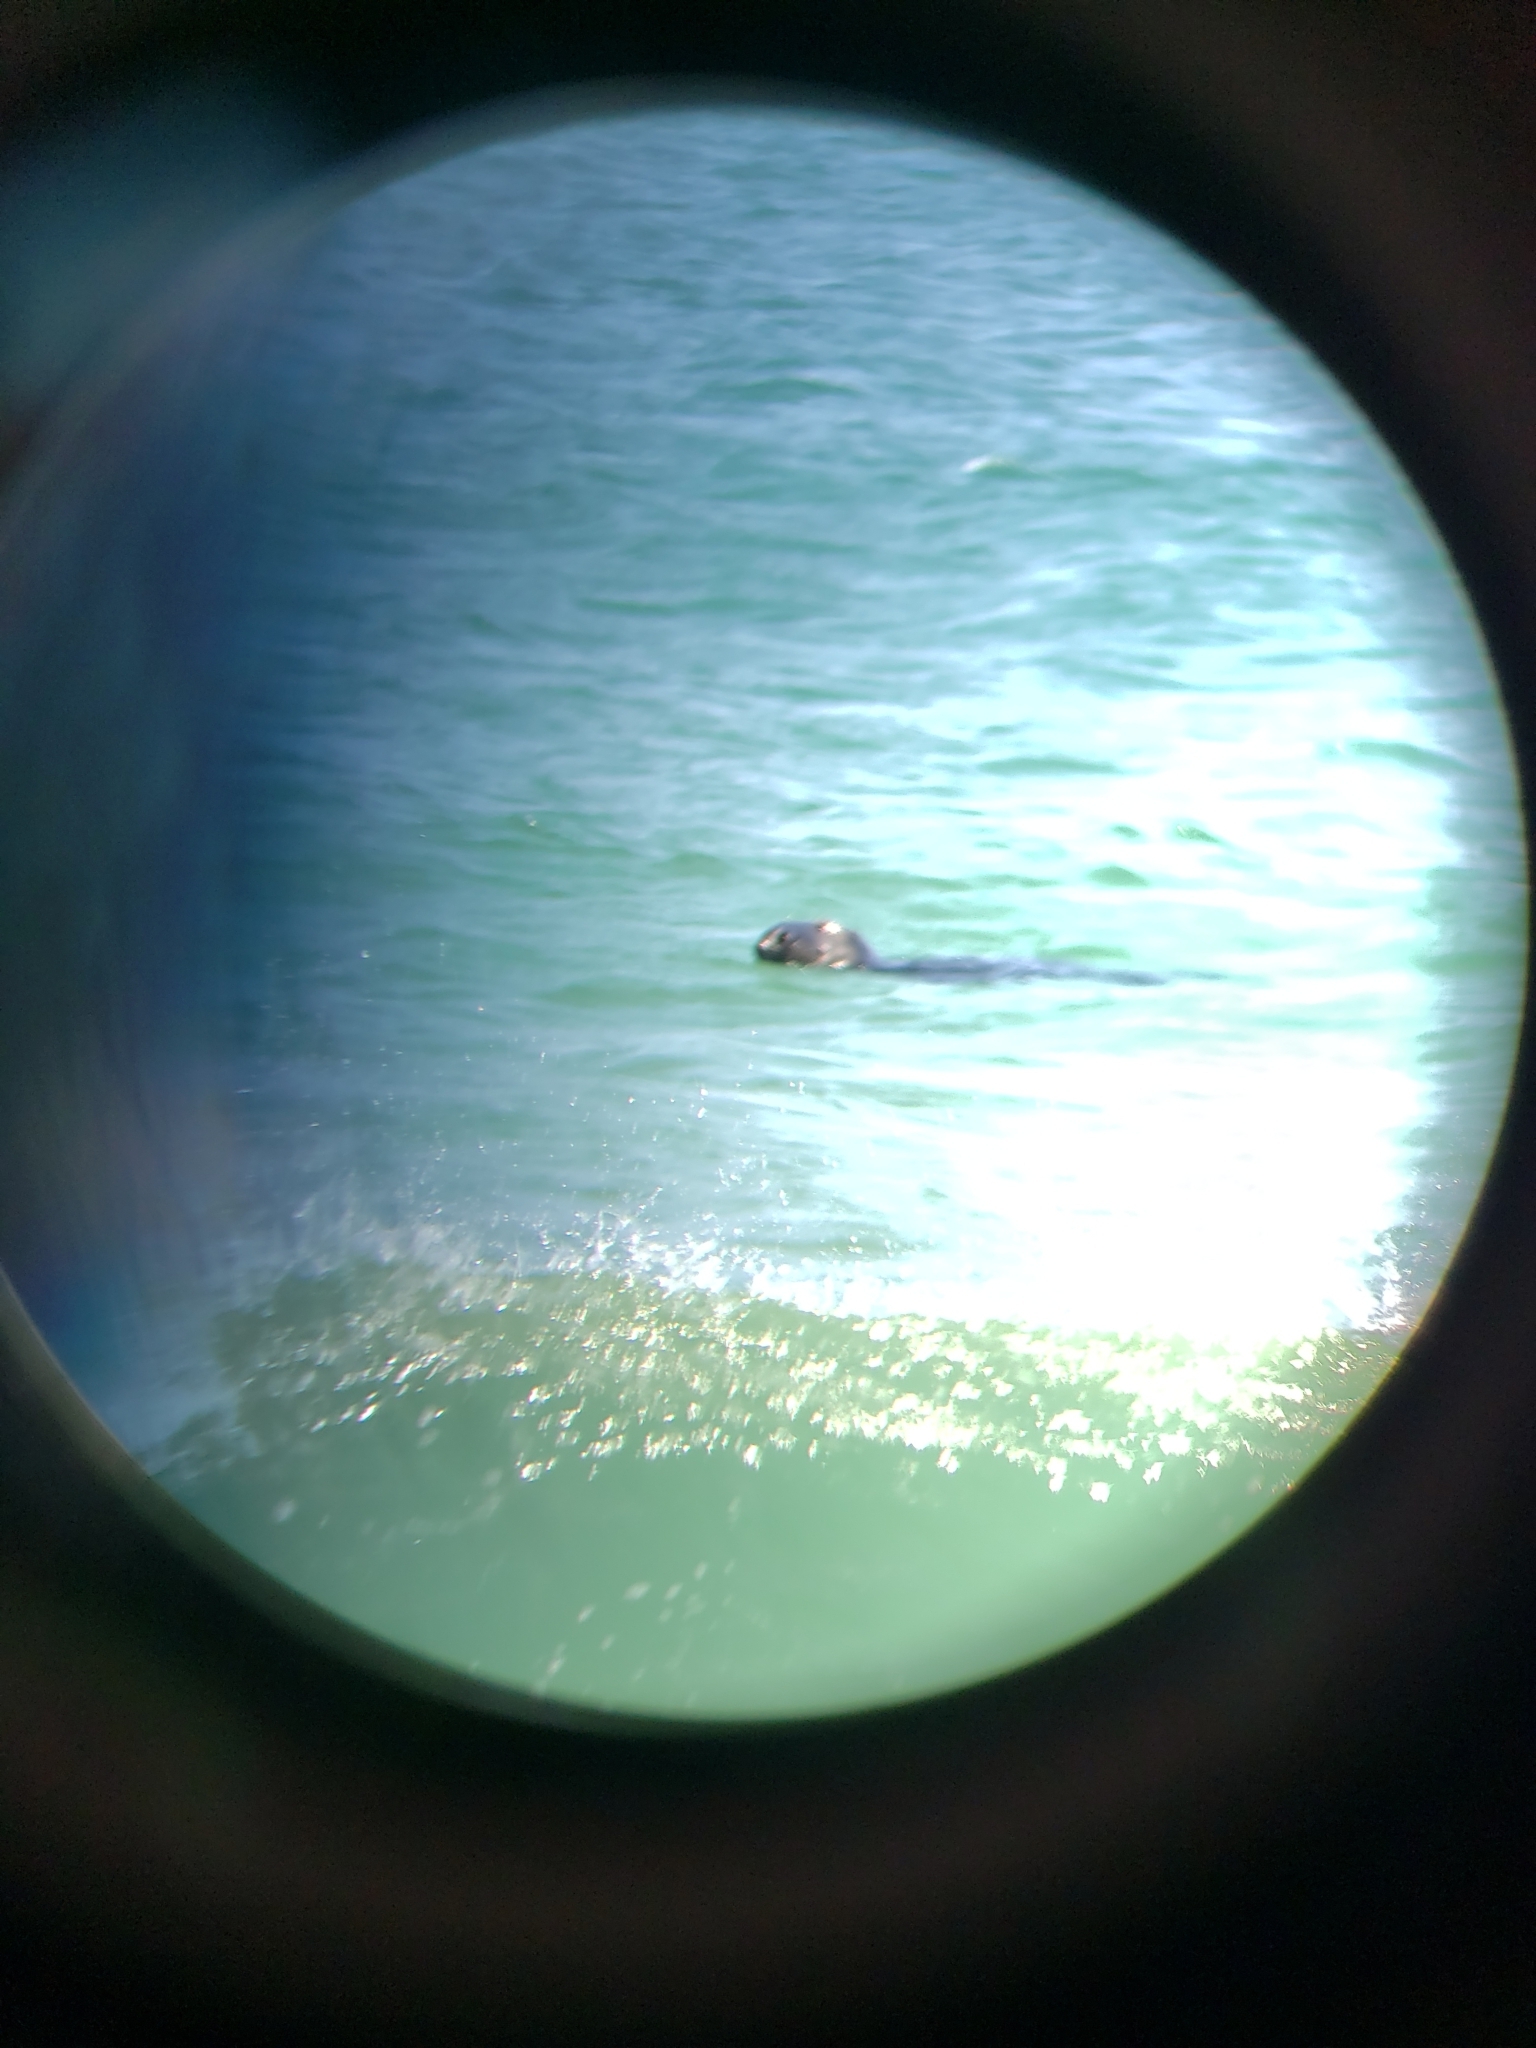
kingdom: Animalia
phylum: Chordata
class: Mammalia
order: Carnivora
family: Phocidae
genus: Halichoerus
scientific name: Halichoerus grypus
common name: Grey seal
